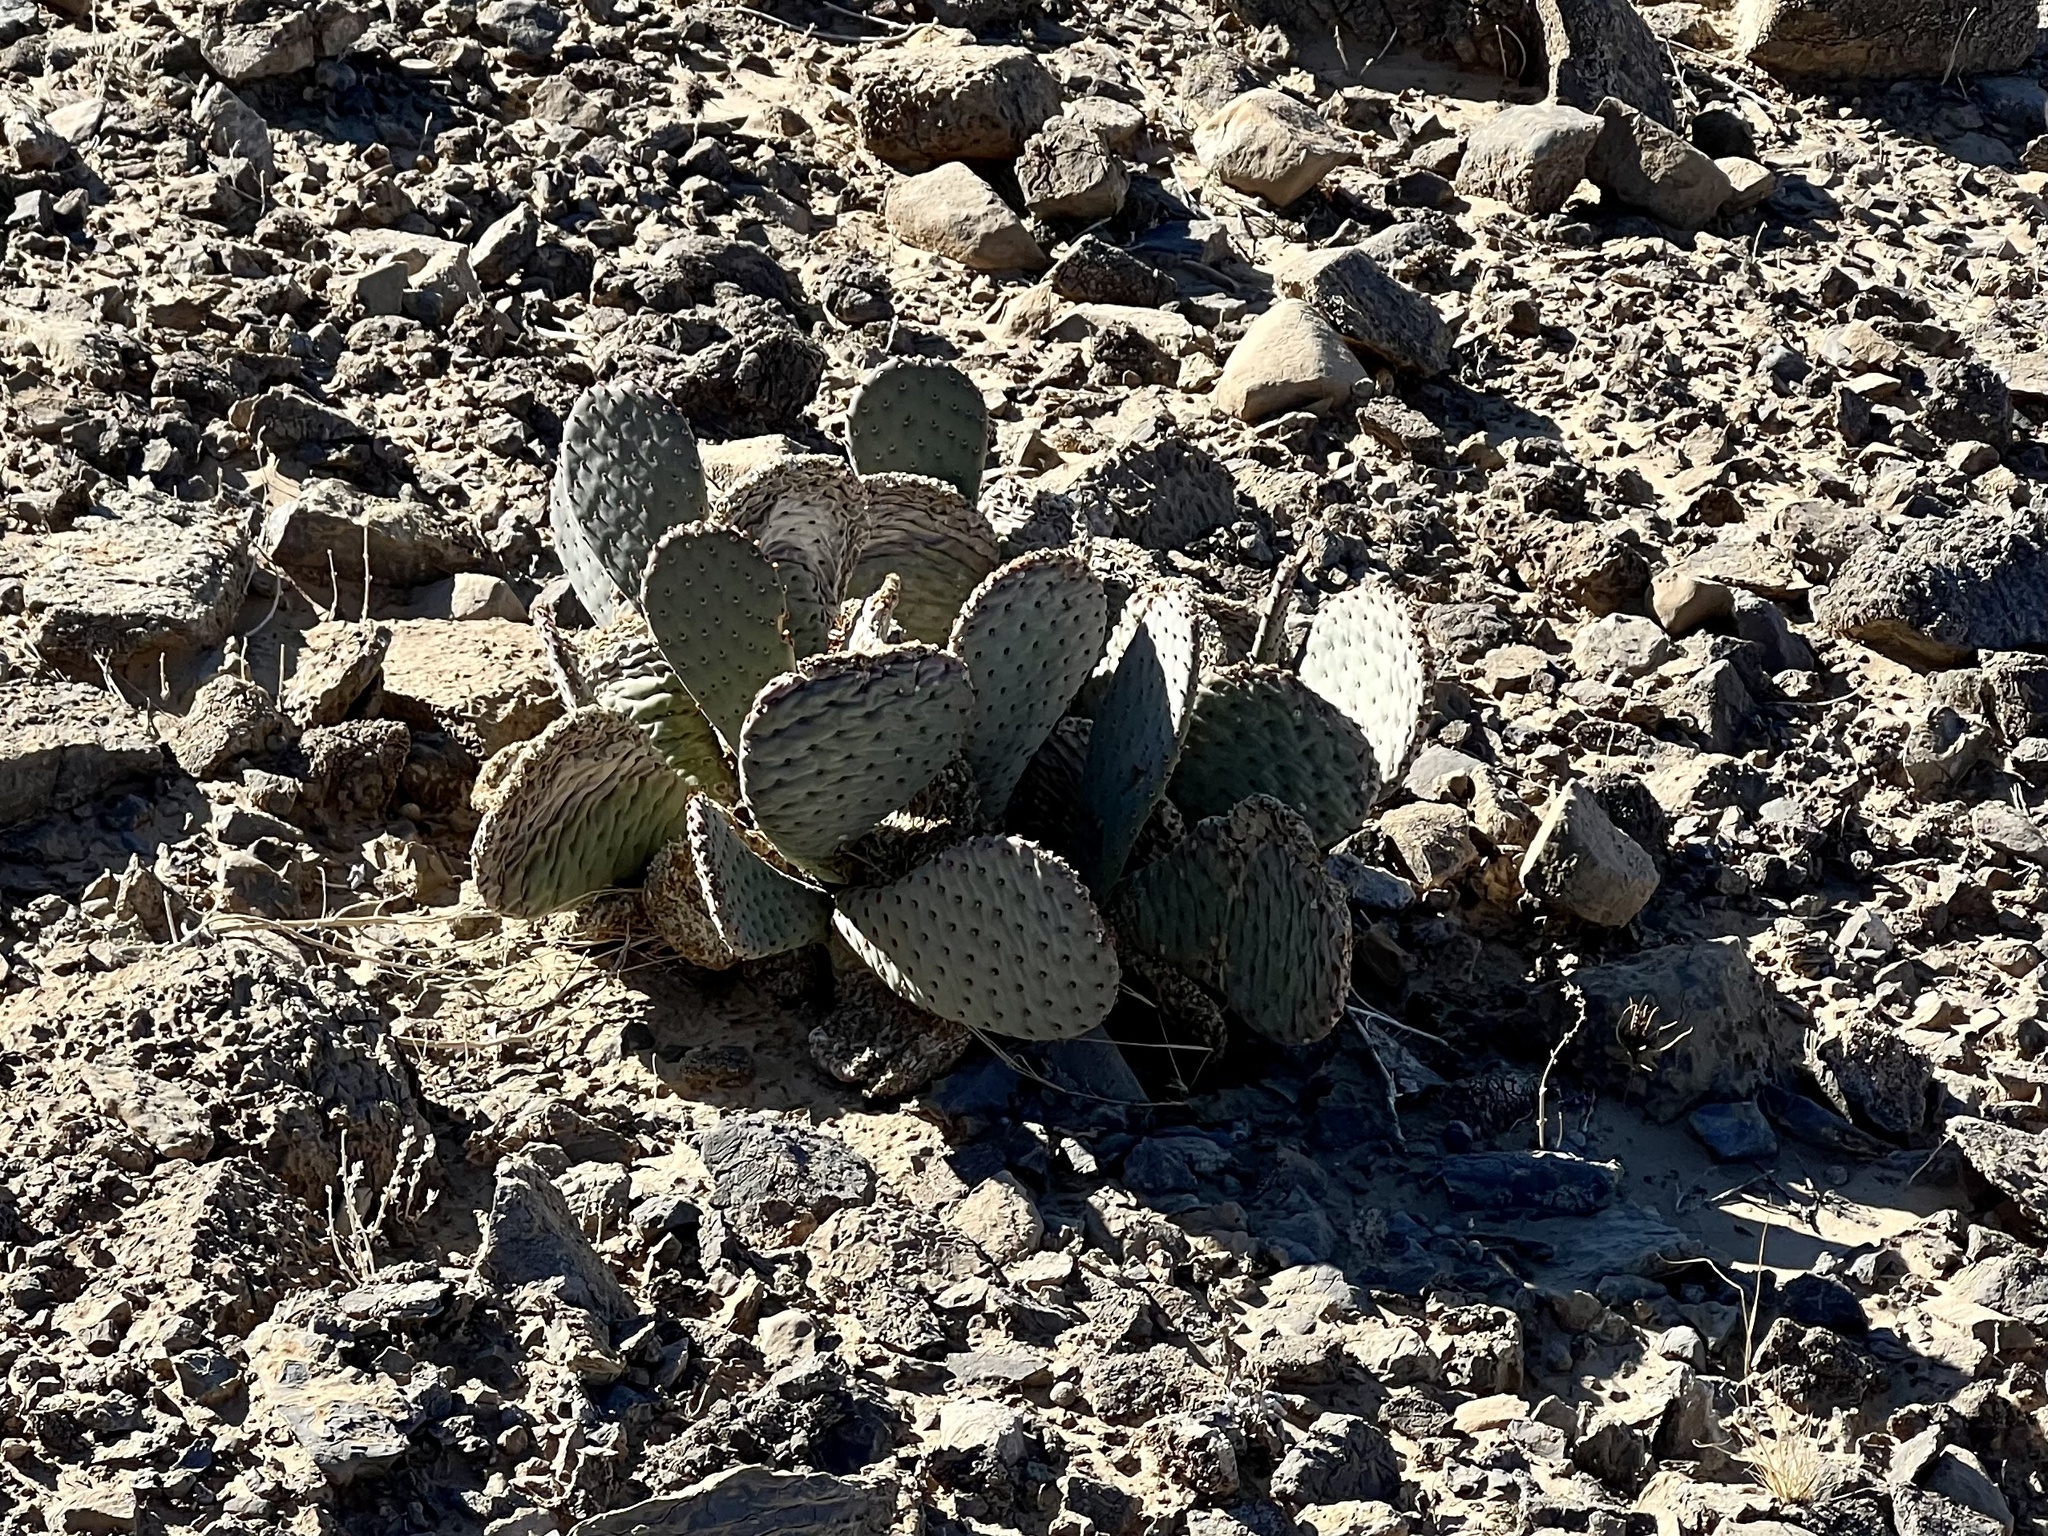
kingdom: Plantae
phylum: Tracheophyta
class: Magnoliopsida
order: Caryophyllales
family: Cactaceae
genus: Opuntia
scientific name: Opuntia basilaris
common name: Beavertail prickly-pear
